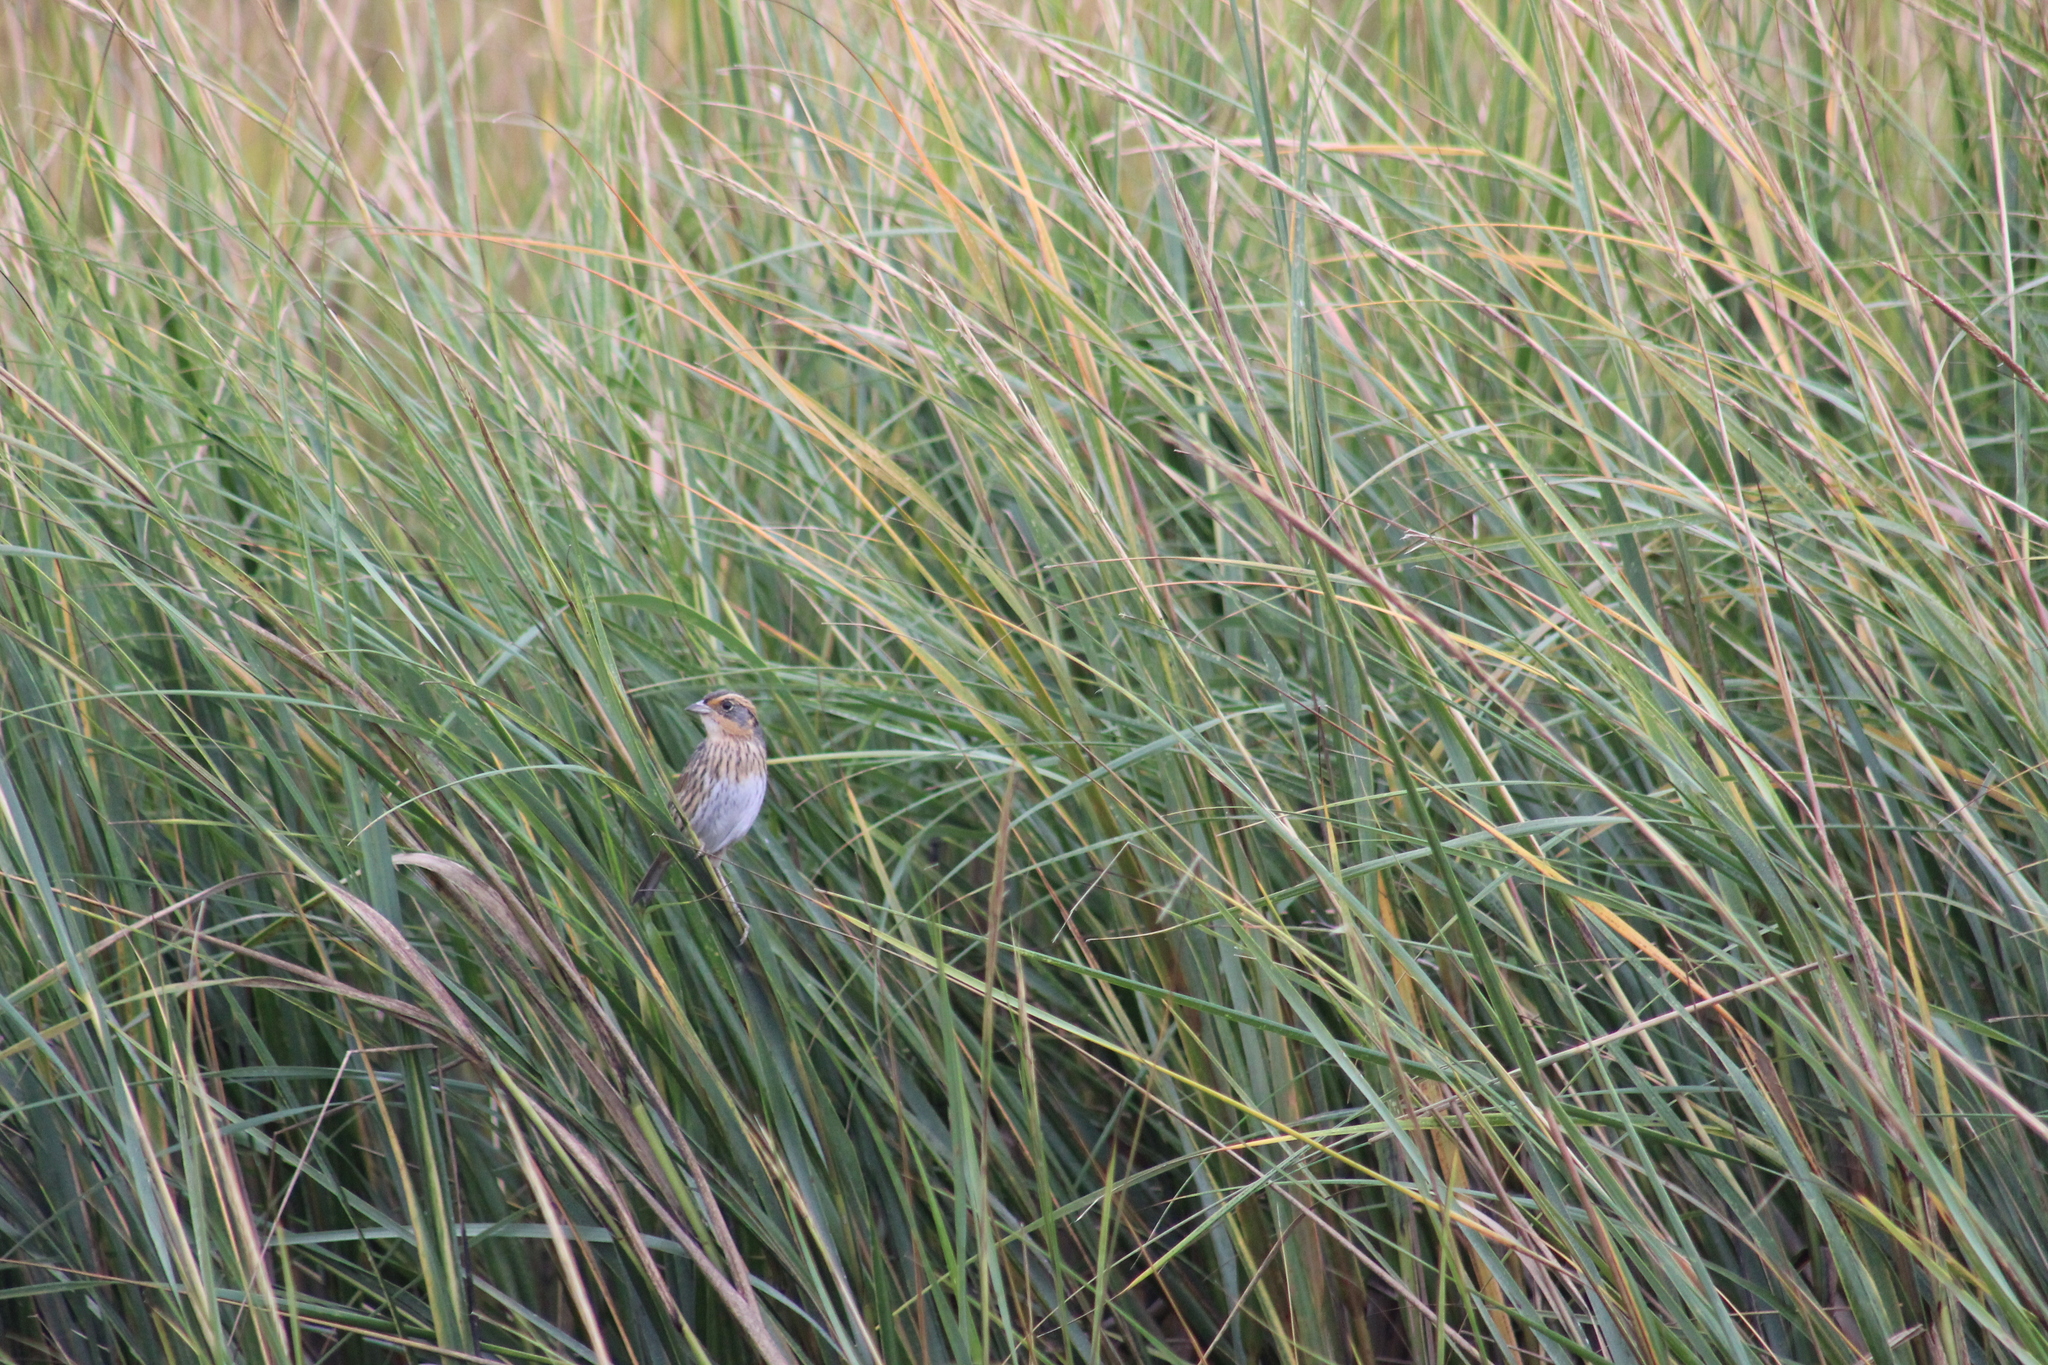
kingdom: Animalia
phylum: Chordata
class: Aves
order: Passeriformes
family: Passerellidae
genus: Ammospiza
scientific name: Ammospiza caudacuta
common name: Saltmarsh sparrow
